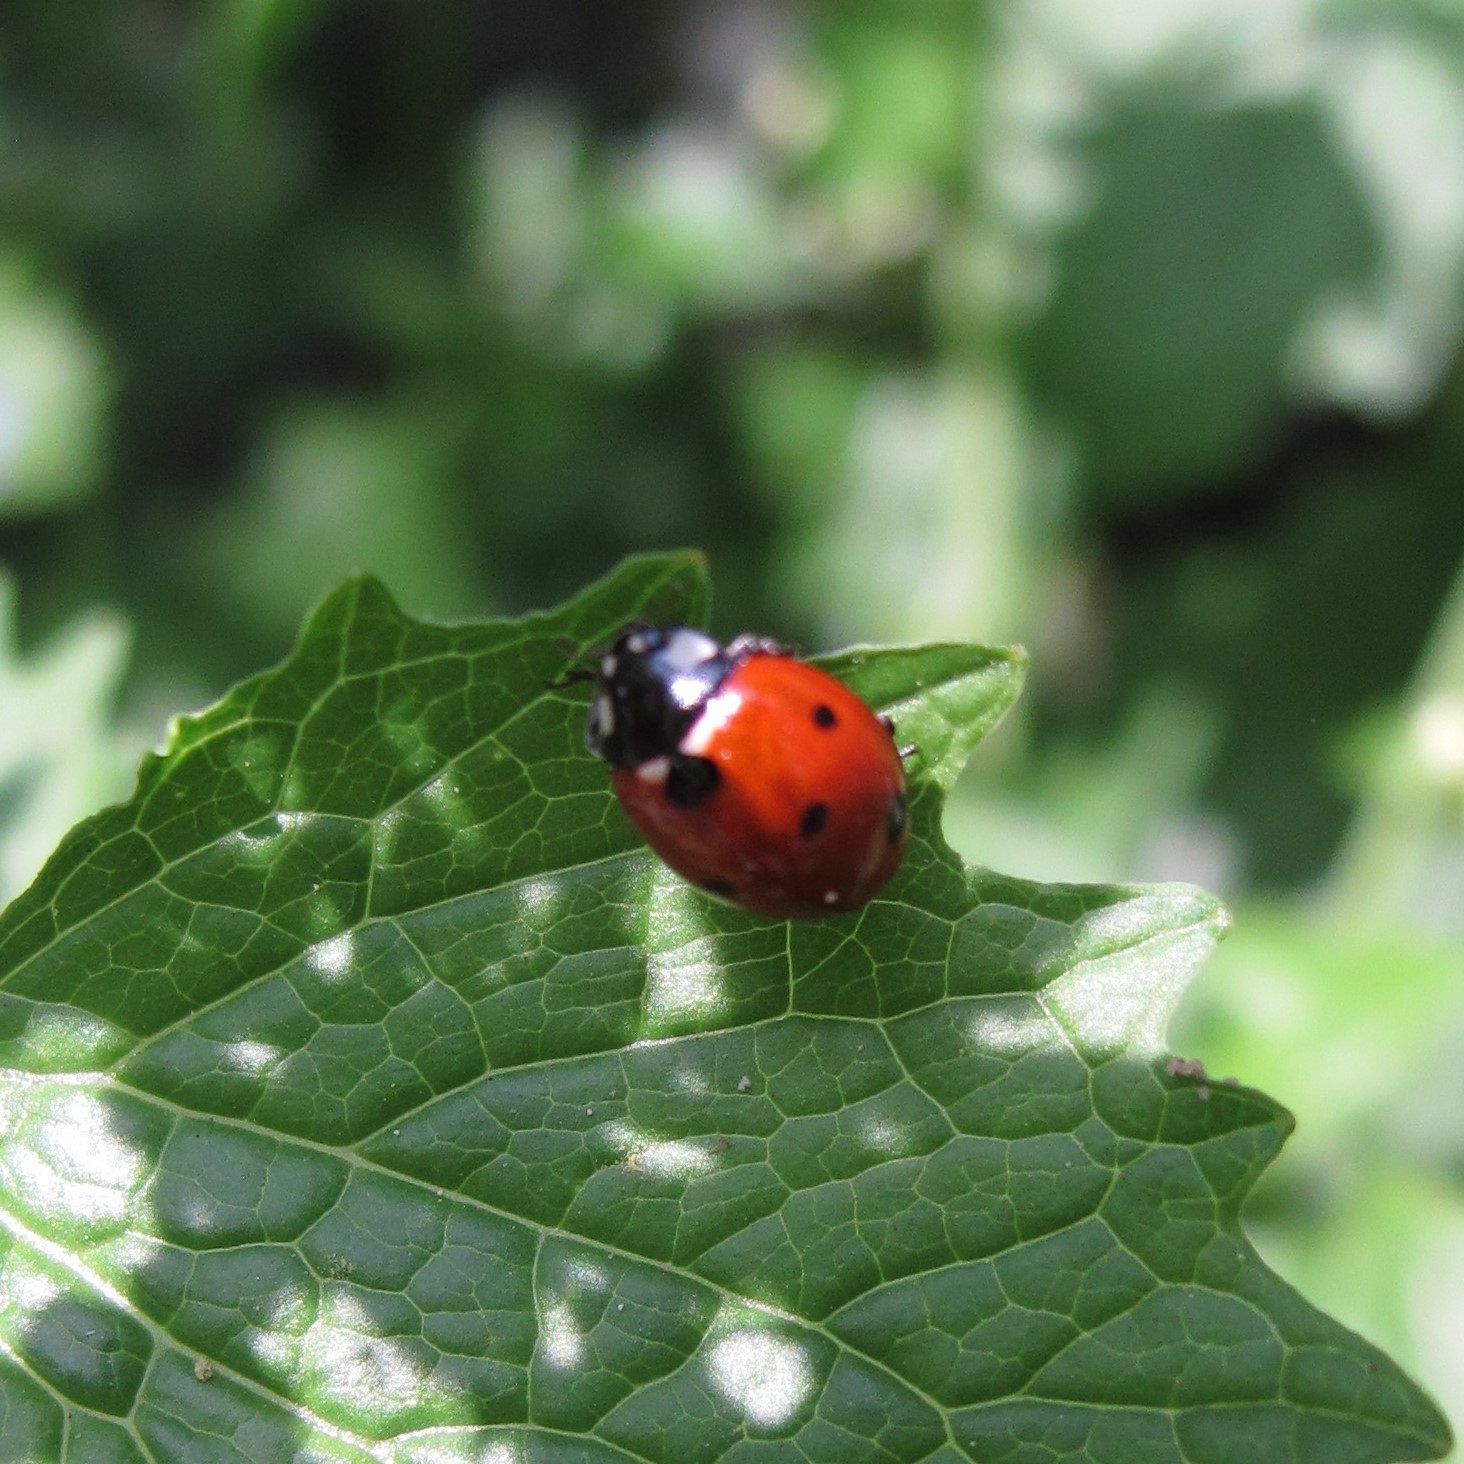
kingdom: Animalia
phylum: Arthropoda
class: Insecta
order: Coleoptera
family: Coccinellidae
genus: Coccinella
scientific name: Coccinella septempunctata
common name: Sevenspotted lady beetle
